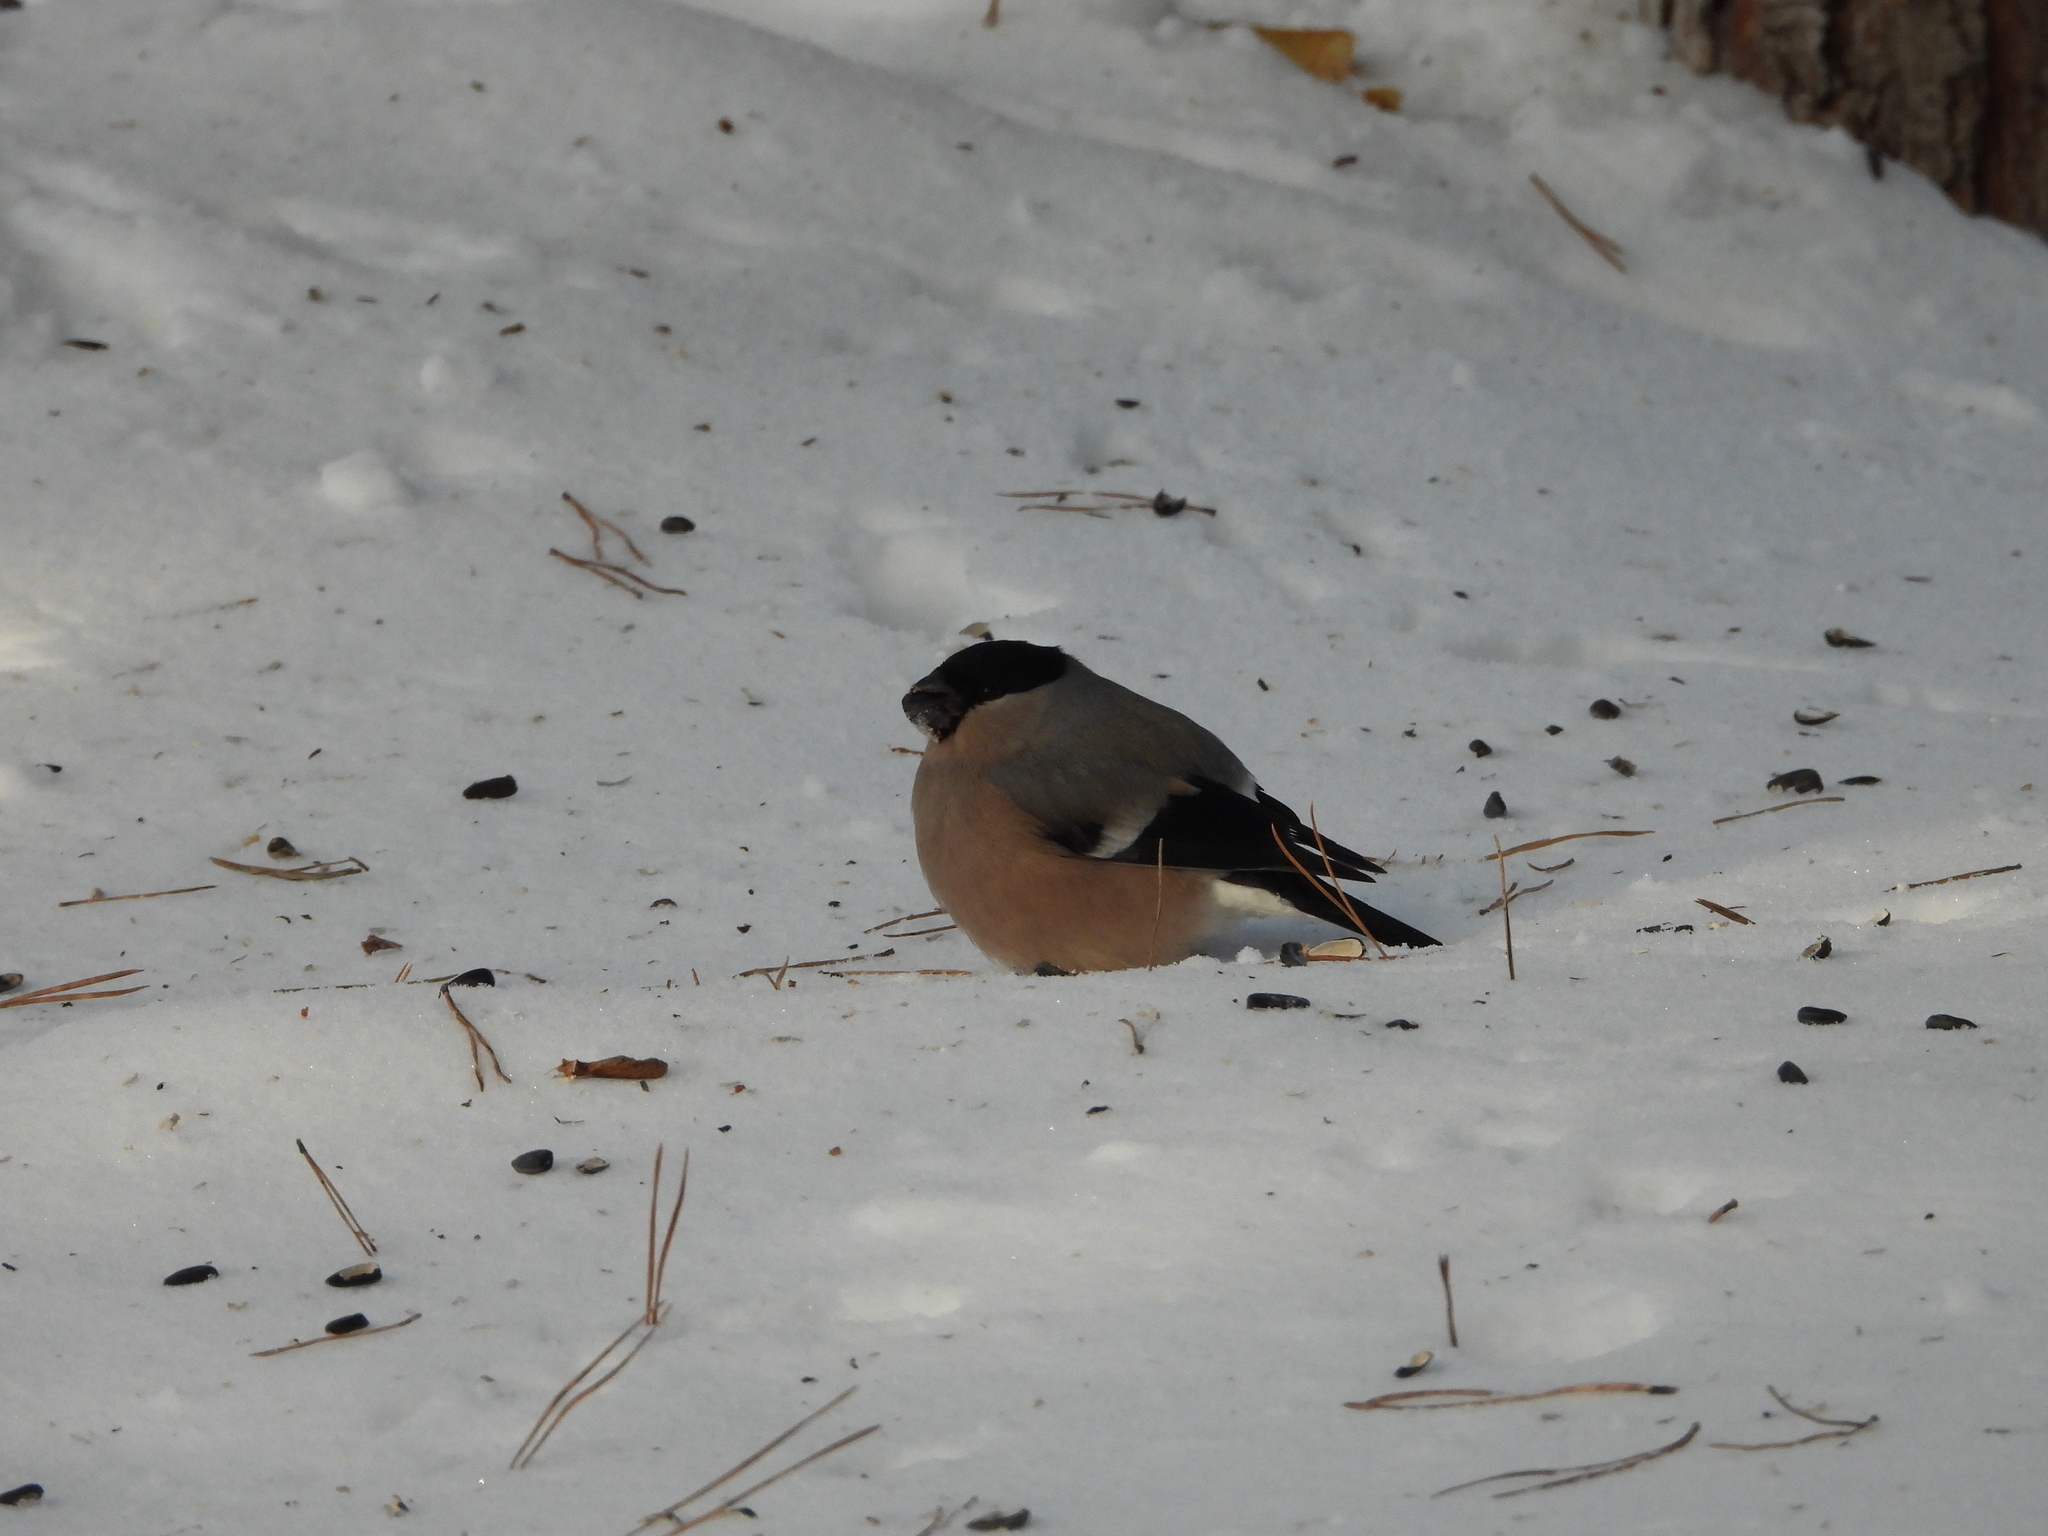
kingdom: Animalia
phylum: Chordata
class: Aves
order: Passeriformes
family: Fringillidae
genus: Pyrrhula
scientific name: Pyrrhula pyrrhula
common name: Eurasian bullfinch
